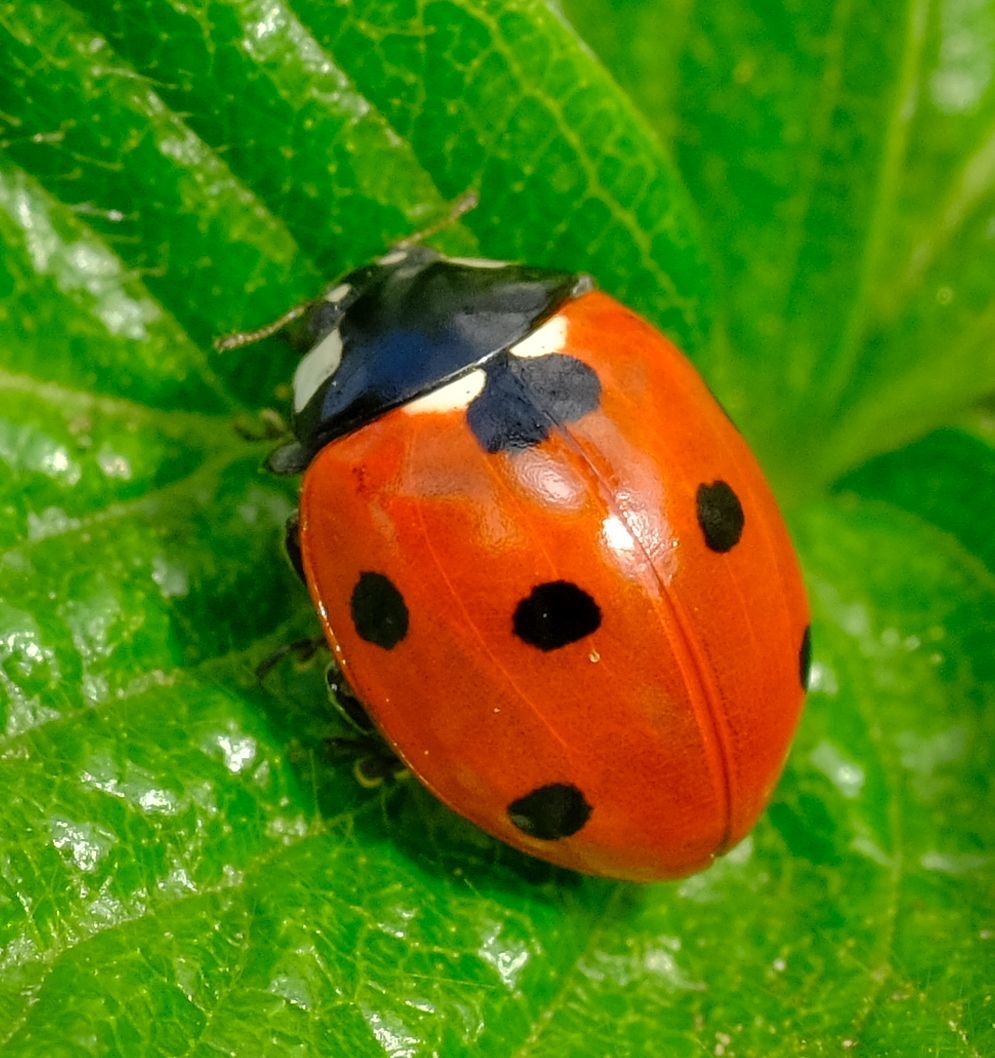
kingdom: Animalia
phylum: Arthropoda
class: Insecta
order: Coleoptera
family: Coccinellidae
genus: Coccinella
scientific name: Coccinella septempunctata
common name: Sevenspotted lady beetle
